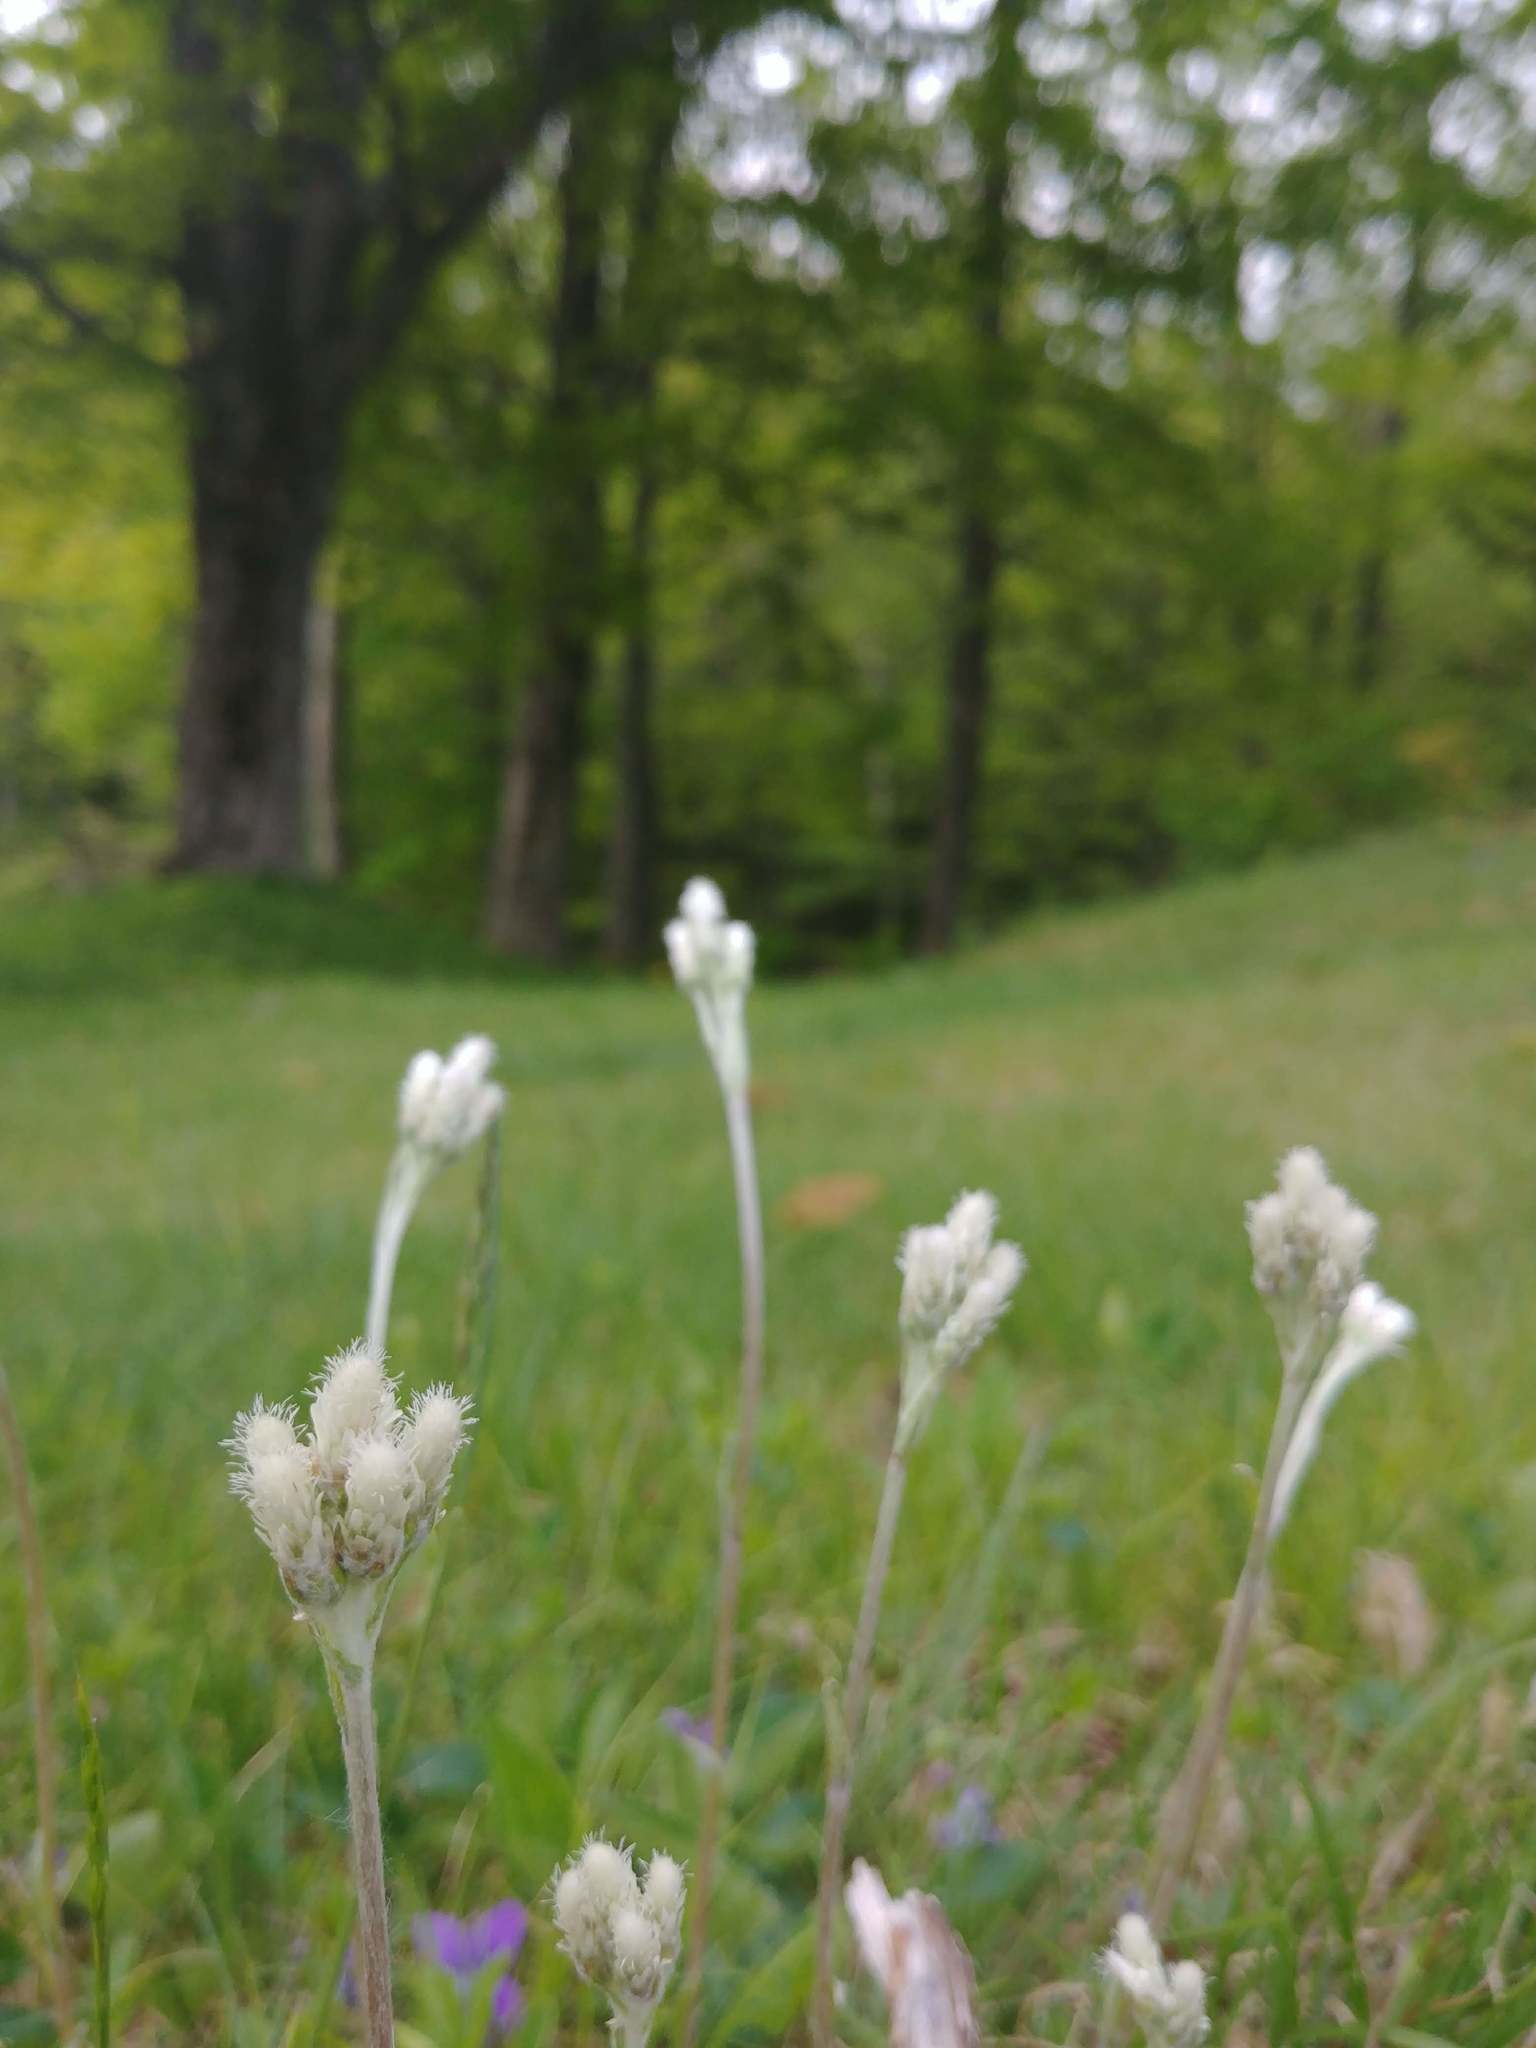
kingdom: Plantae
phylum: Tracheophyta
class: Magnoliopsida
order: Asterales
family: Asteraceae
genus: Antennaria
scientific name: Antennaria neglecta
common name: Field pussytoes
